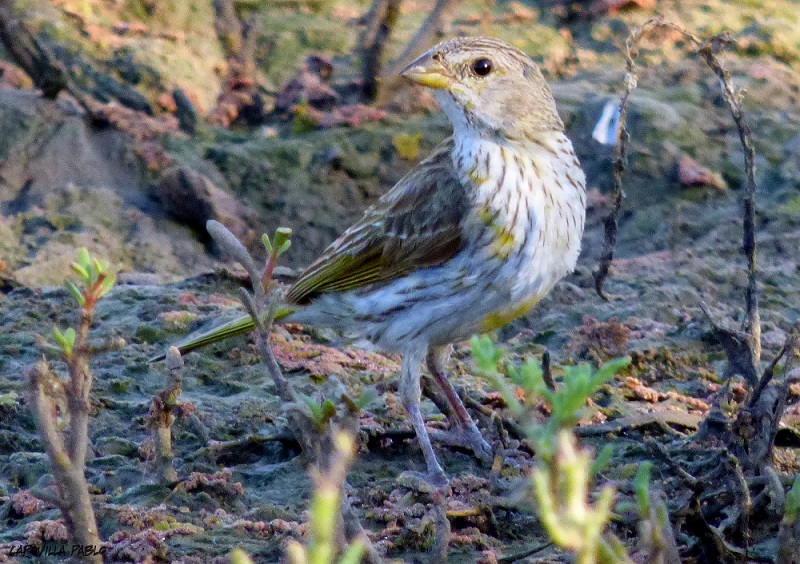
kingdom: Animalia
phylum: Chordata
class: Aves
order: Passeriformes
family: Thraupidae
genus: Sicalis
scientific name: Sicalis flaveola
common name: Saffron finch
